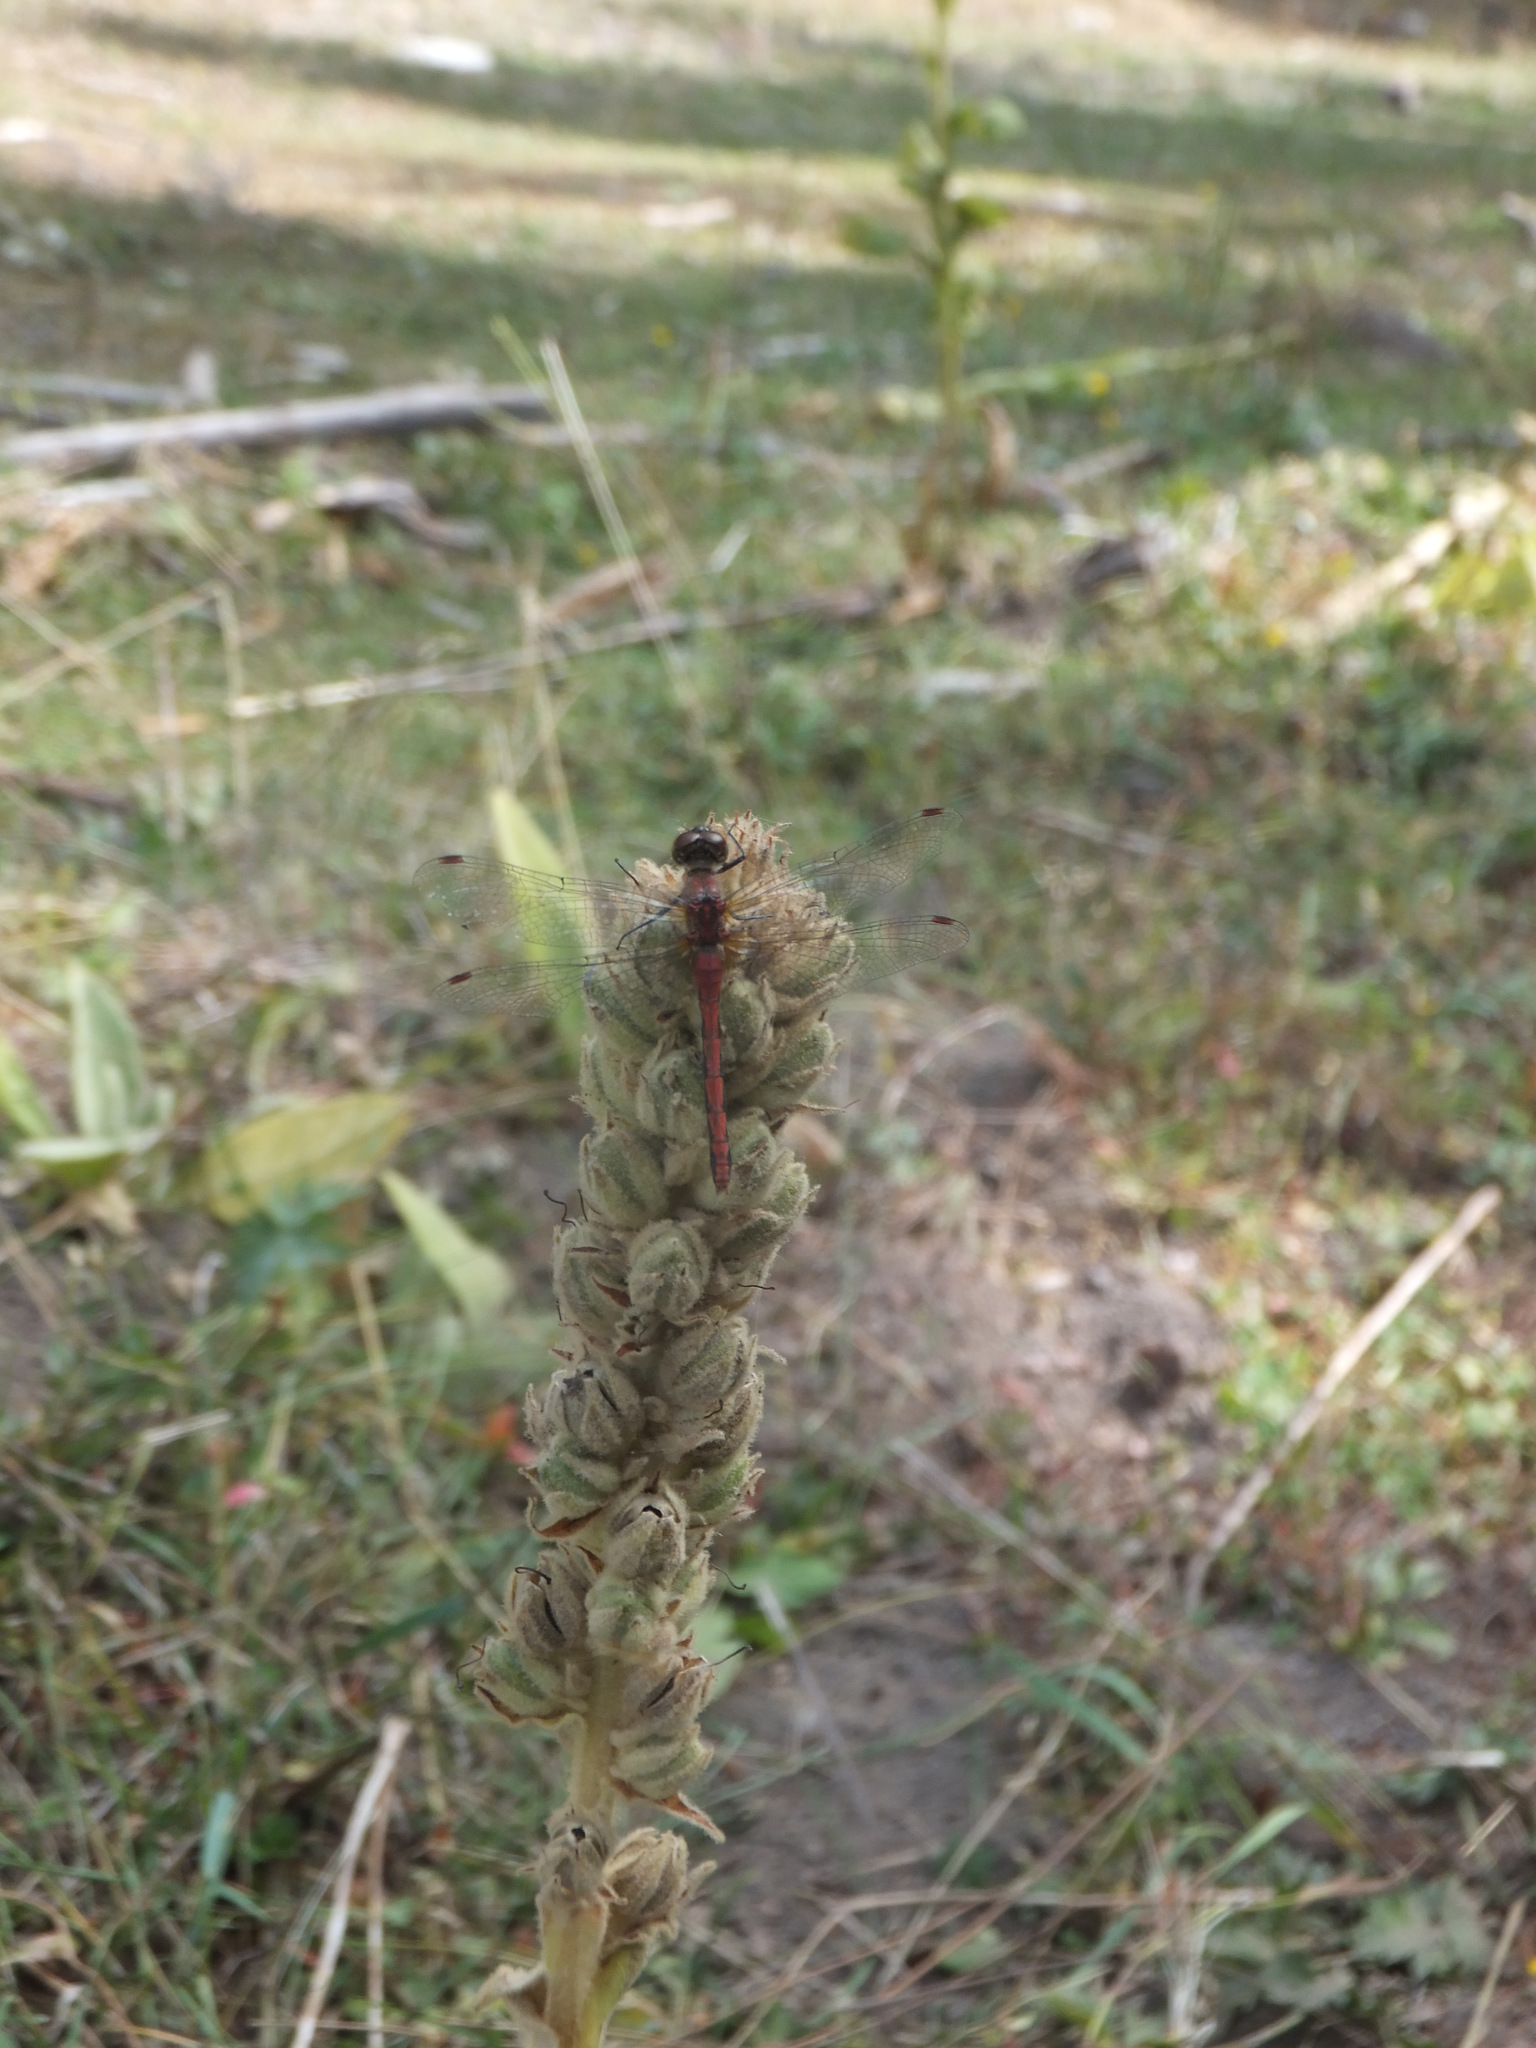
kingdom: Animalia
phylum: Arthropoda
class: Insecta
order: Odonata
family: Libellulidae
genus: Sympetrum
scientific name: Sympetrum internum
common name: Cherry-faced meadowhawk
